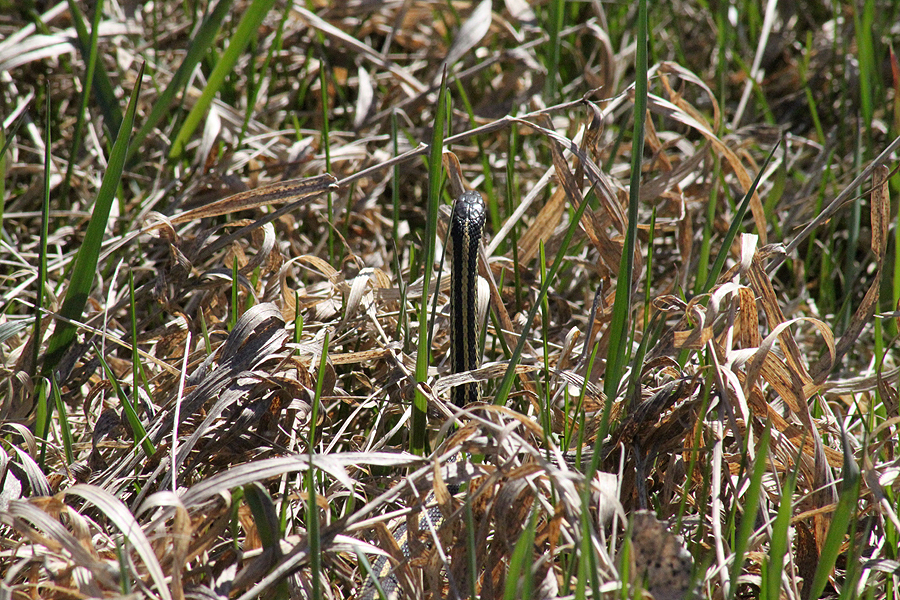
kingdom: Animalia
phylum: Chordata
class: Squamata
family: Colubridae
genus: Thamnophis
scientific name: Thamnophis radix
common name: Plains garter snake
